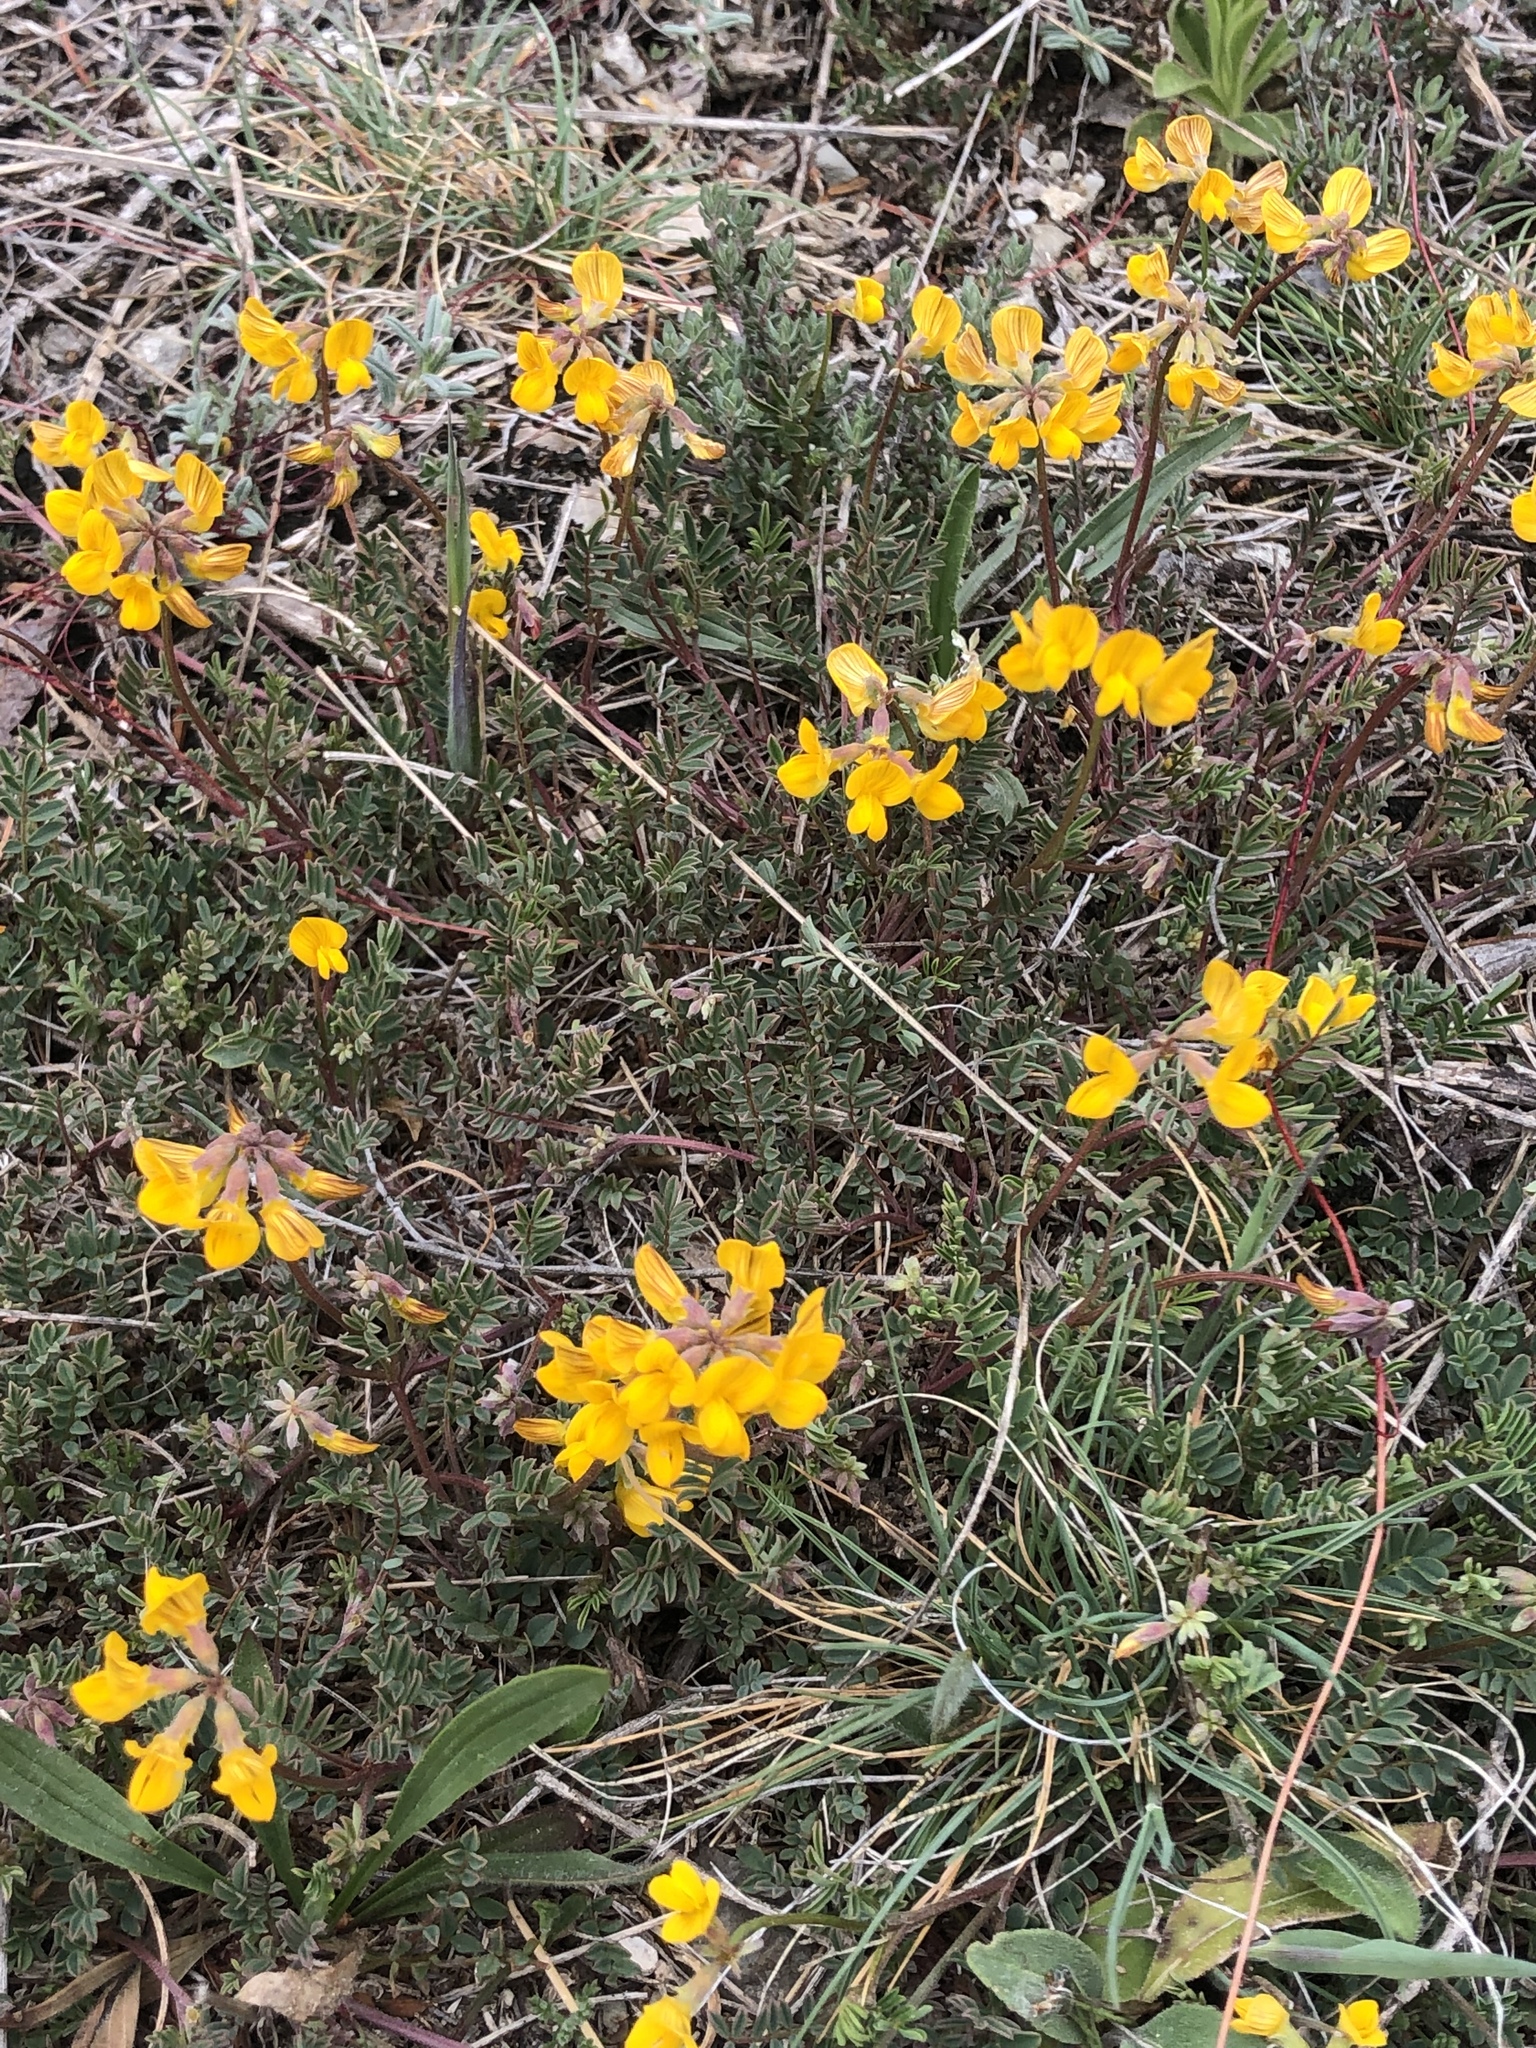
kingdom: Plantae
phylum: Tracheophyta
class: Magnoliopsida
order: Fabales
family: Fabaceae
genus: Lotus
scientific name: Lotus corniculatus
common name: Common bird's-foot-trefoil
